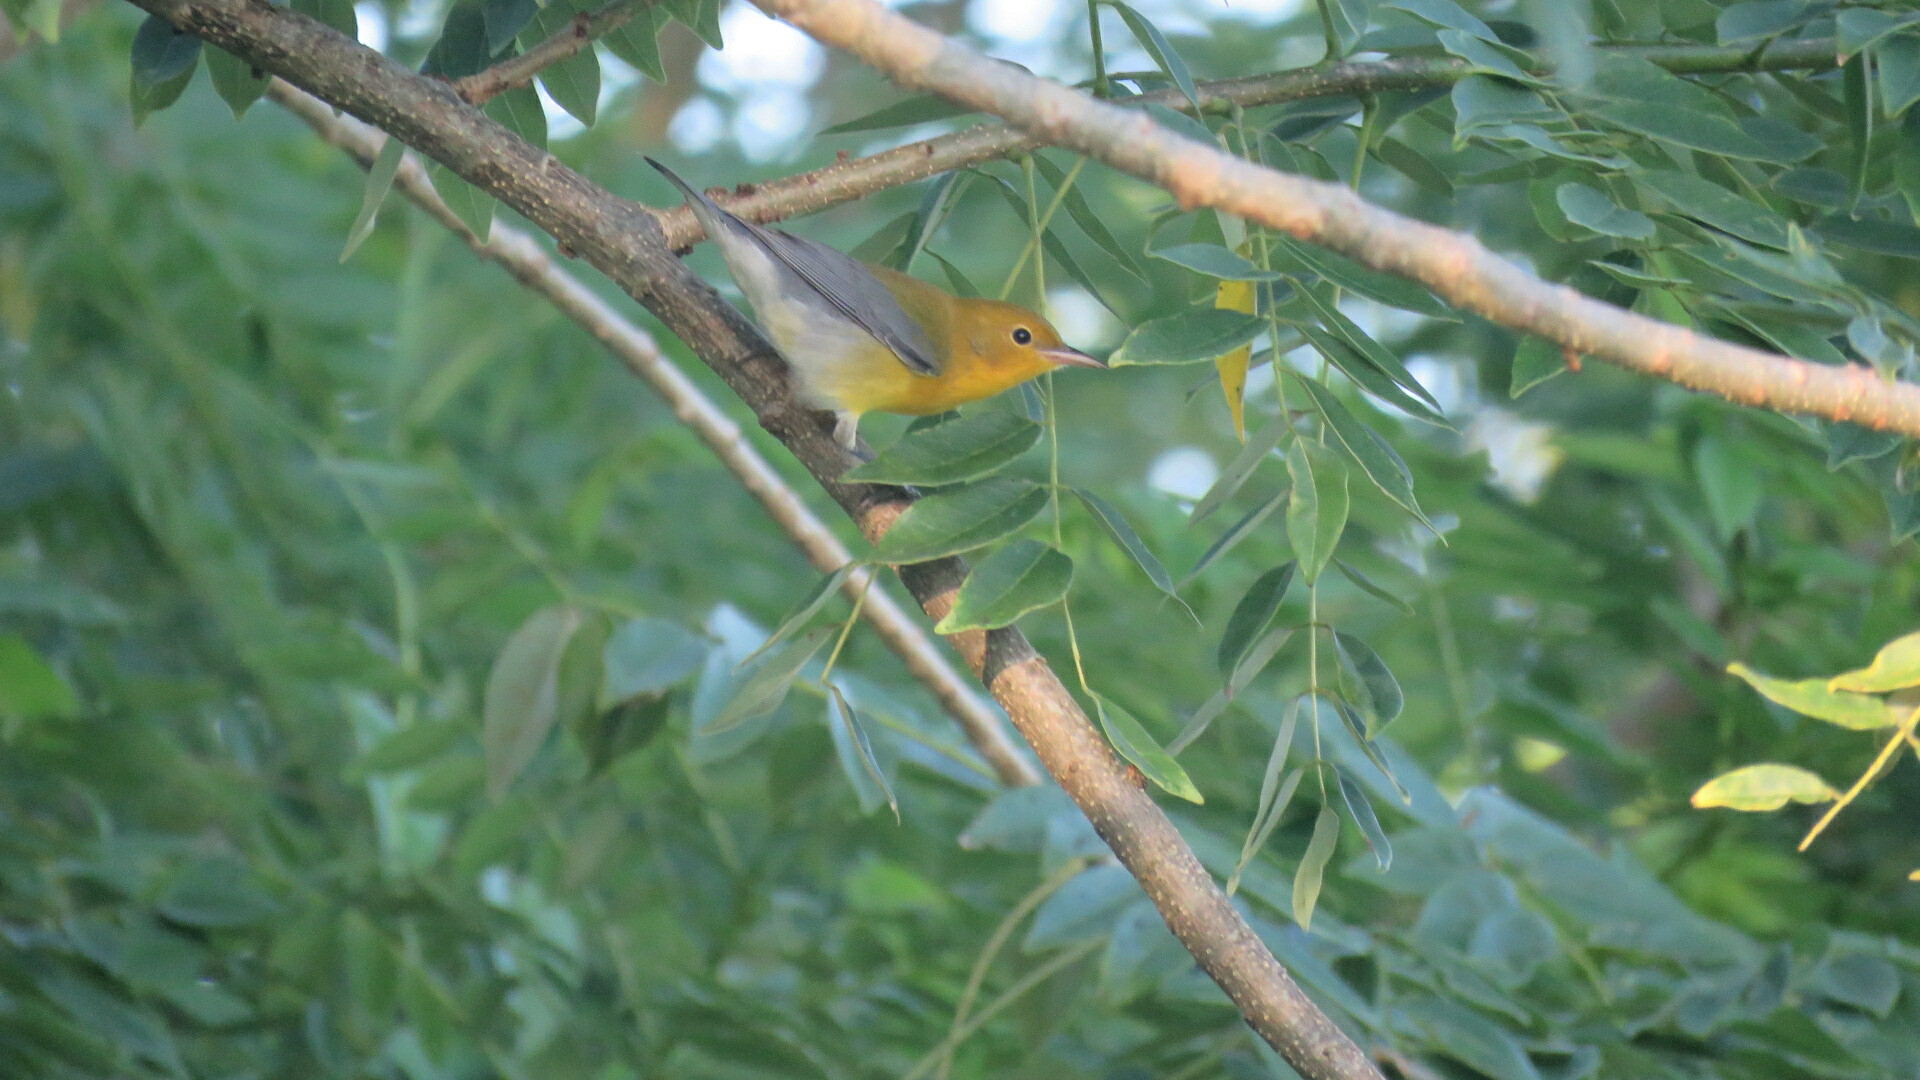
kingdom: Animalia
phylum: Chordata
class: Aves
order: Passeriformes
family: Parulidae
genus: Protonotaria
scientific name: Protonotaria citrea
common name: Prothonotary warbler
